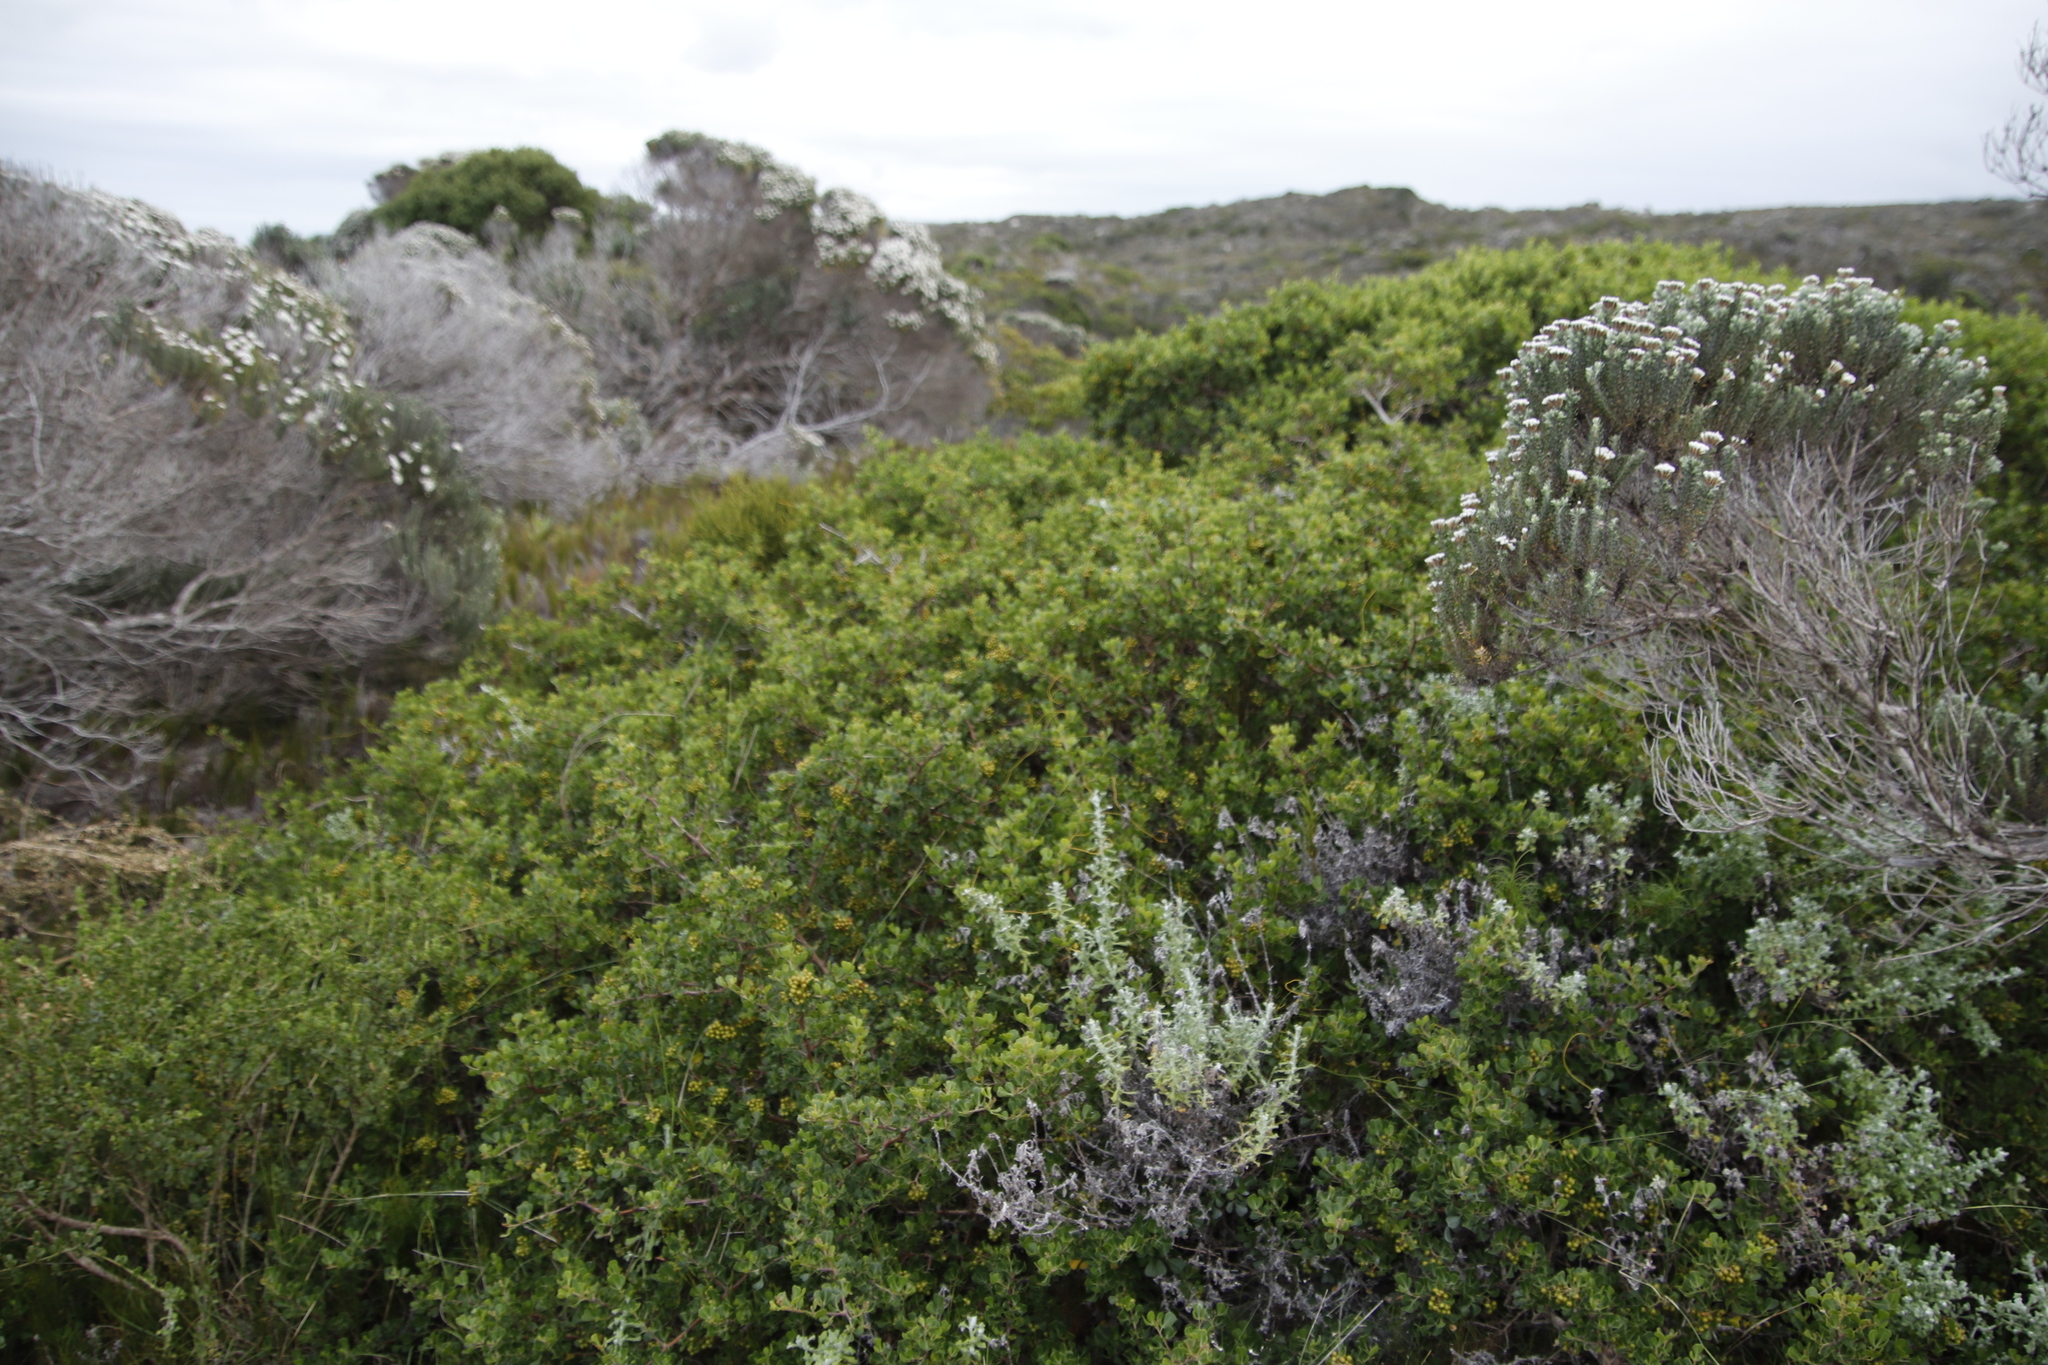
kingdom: Plantae
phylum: Tracheophyta
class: Magnoliopsida
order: Sapindales
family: Anacardiaceae
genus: Searsia
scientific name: Searsia glauca
